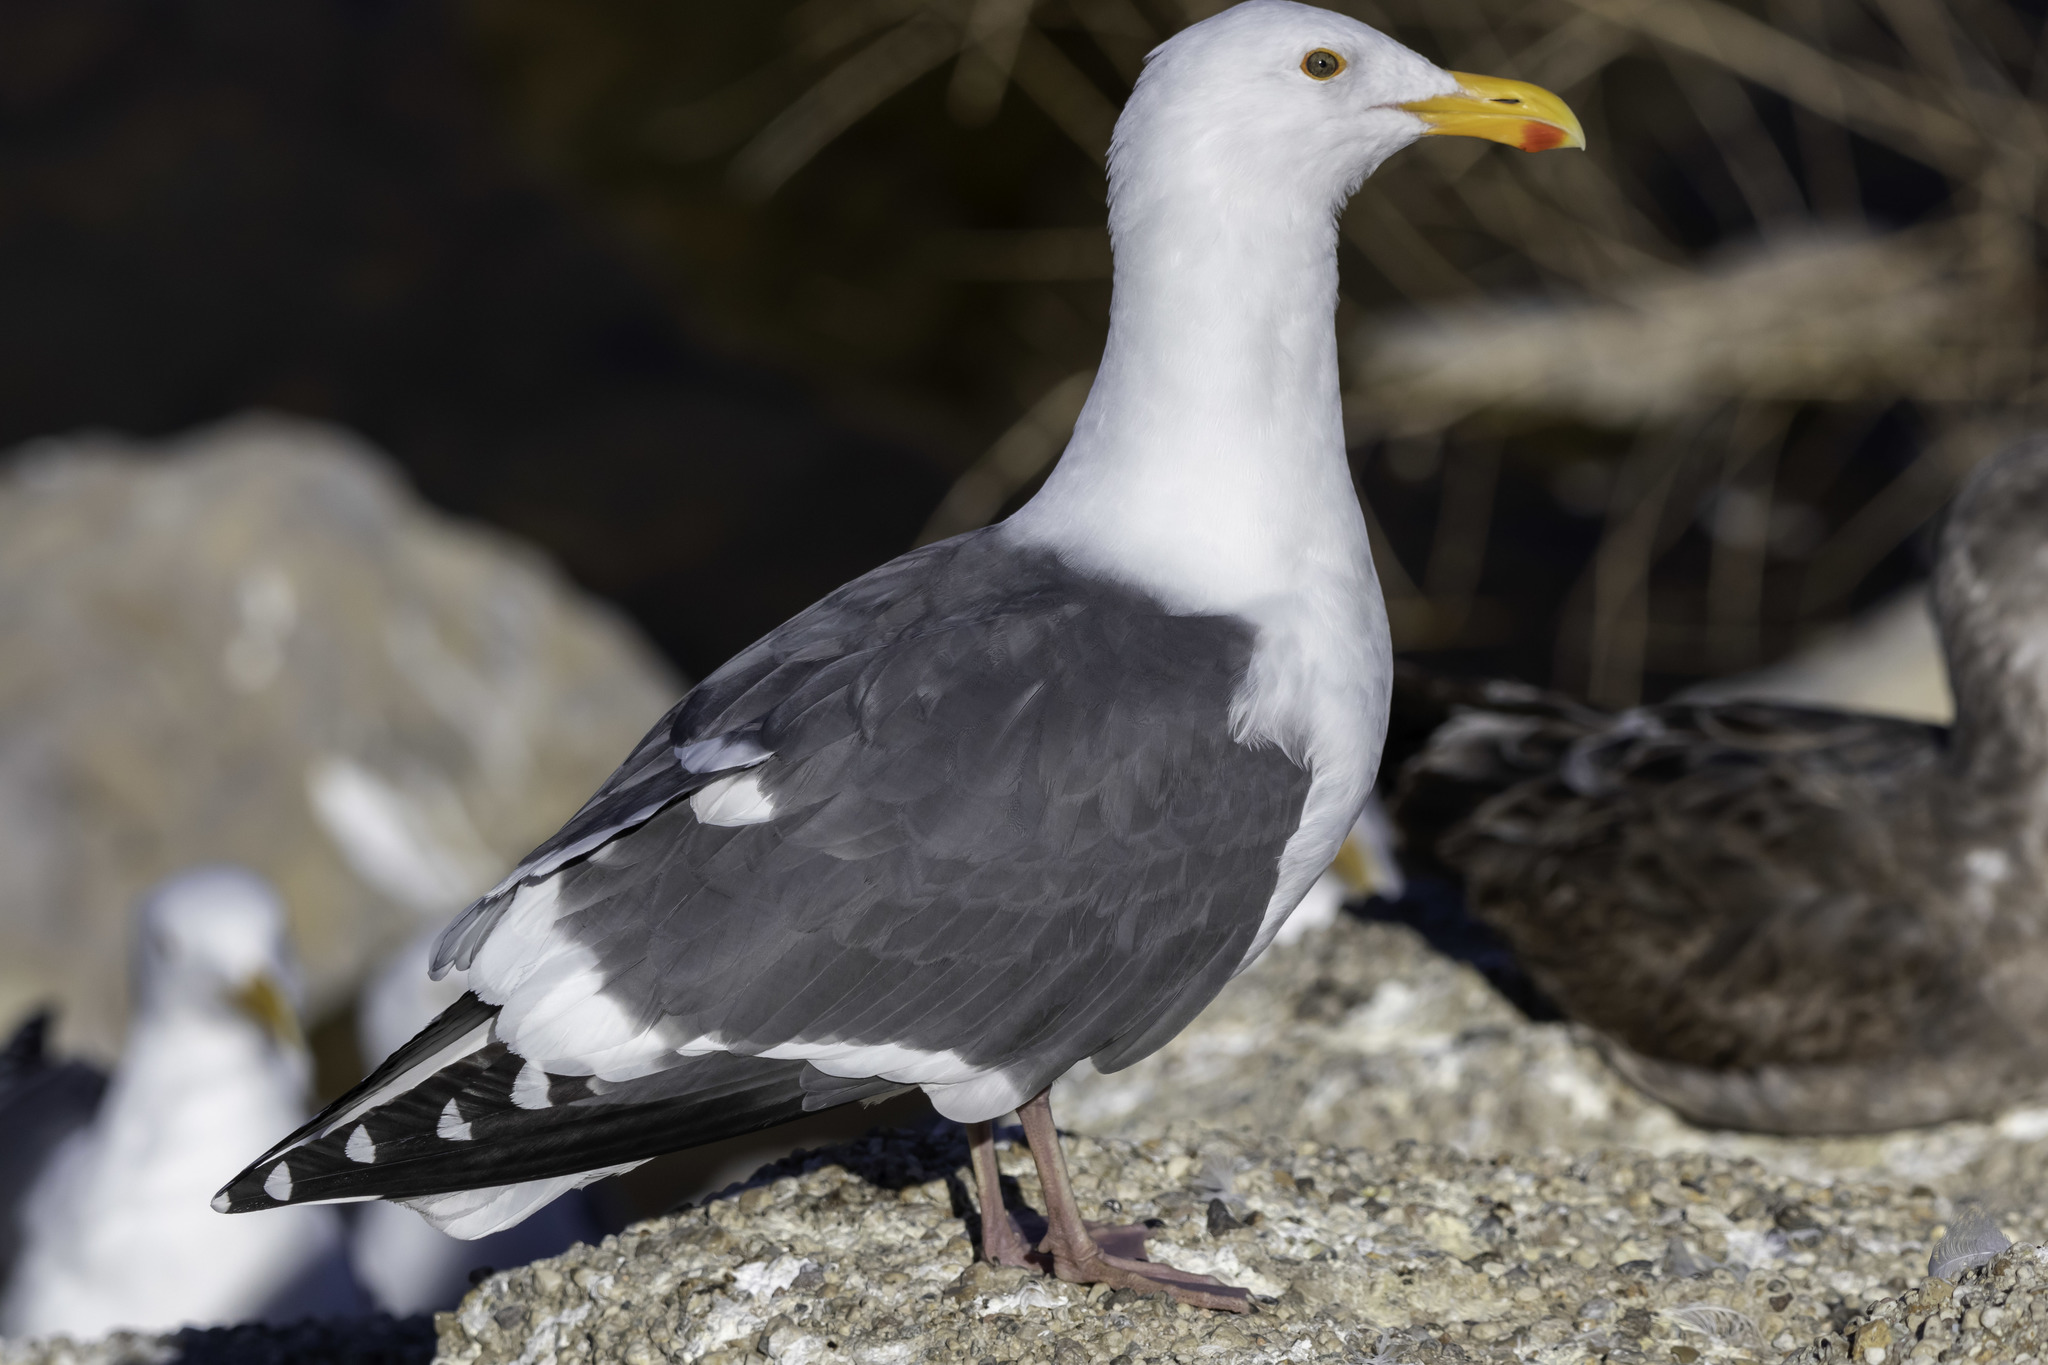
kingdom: Animalia
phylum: Chordata
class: Aves
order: Charadriiformes
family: Laridae
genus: Larus
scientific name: Larus occidentalis
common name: Western gull
